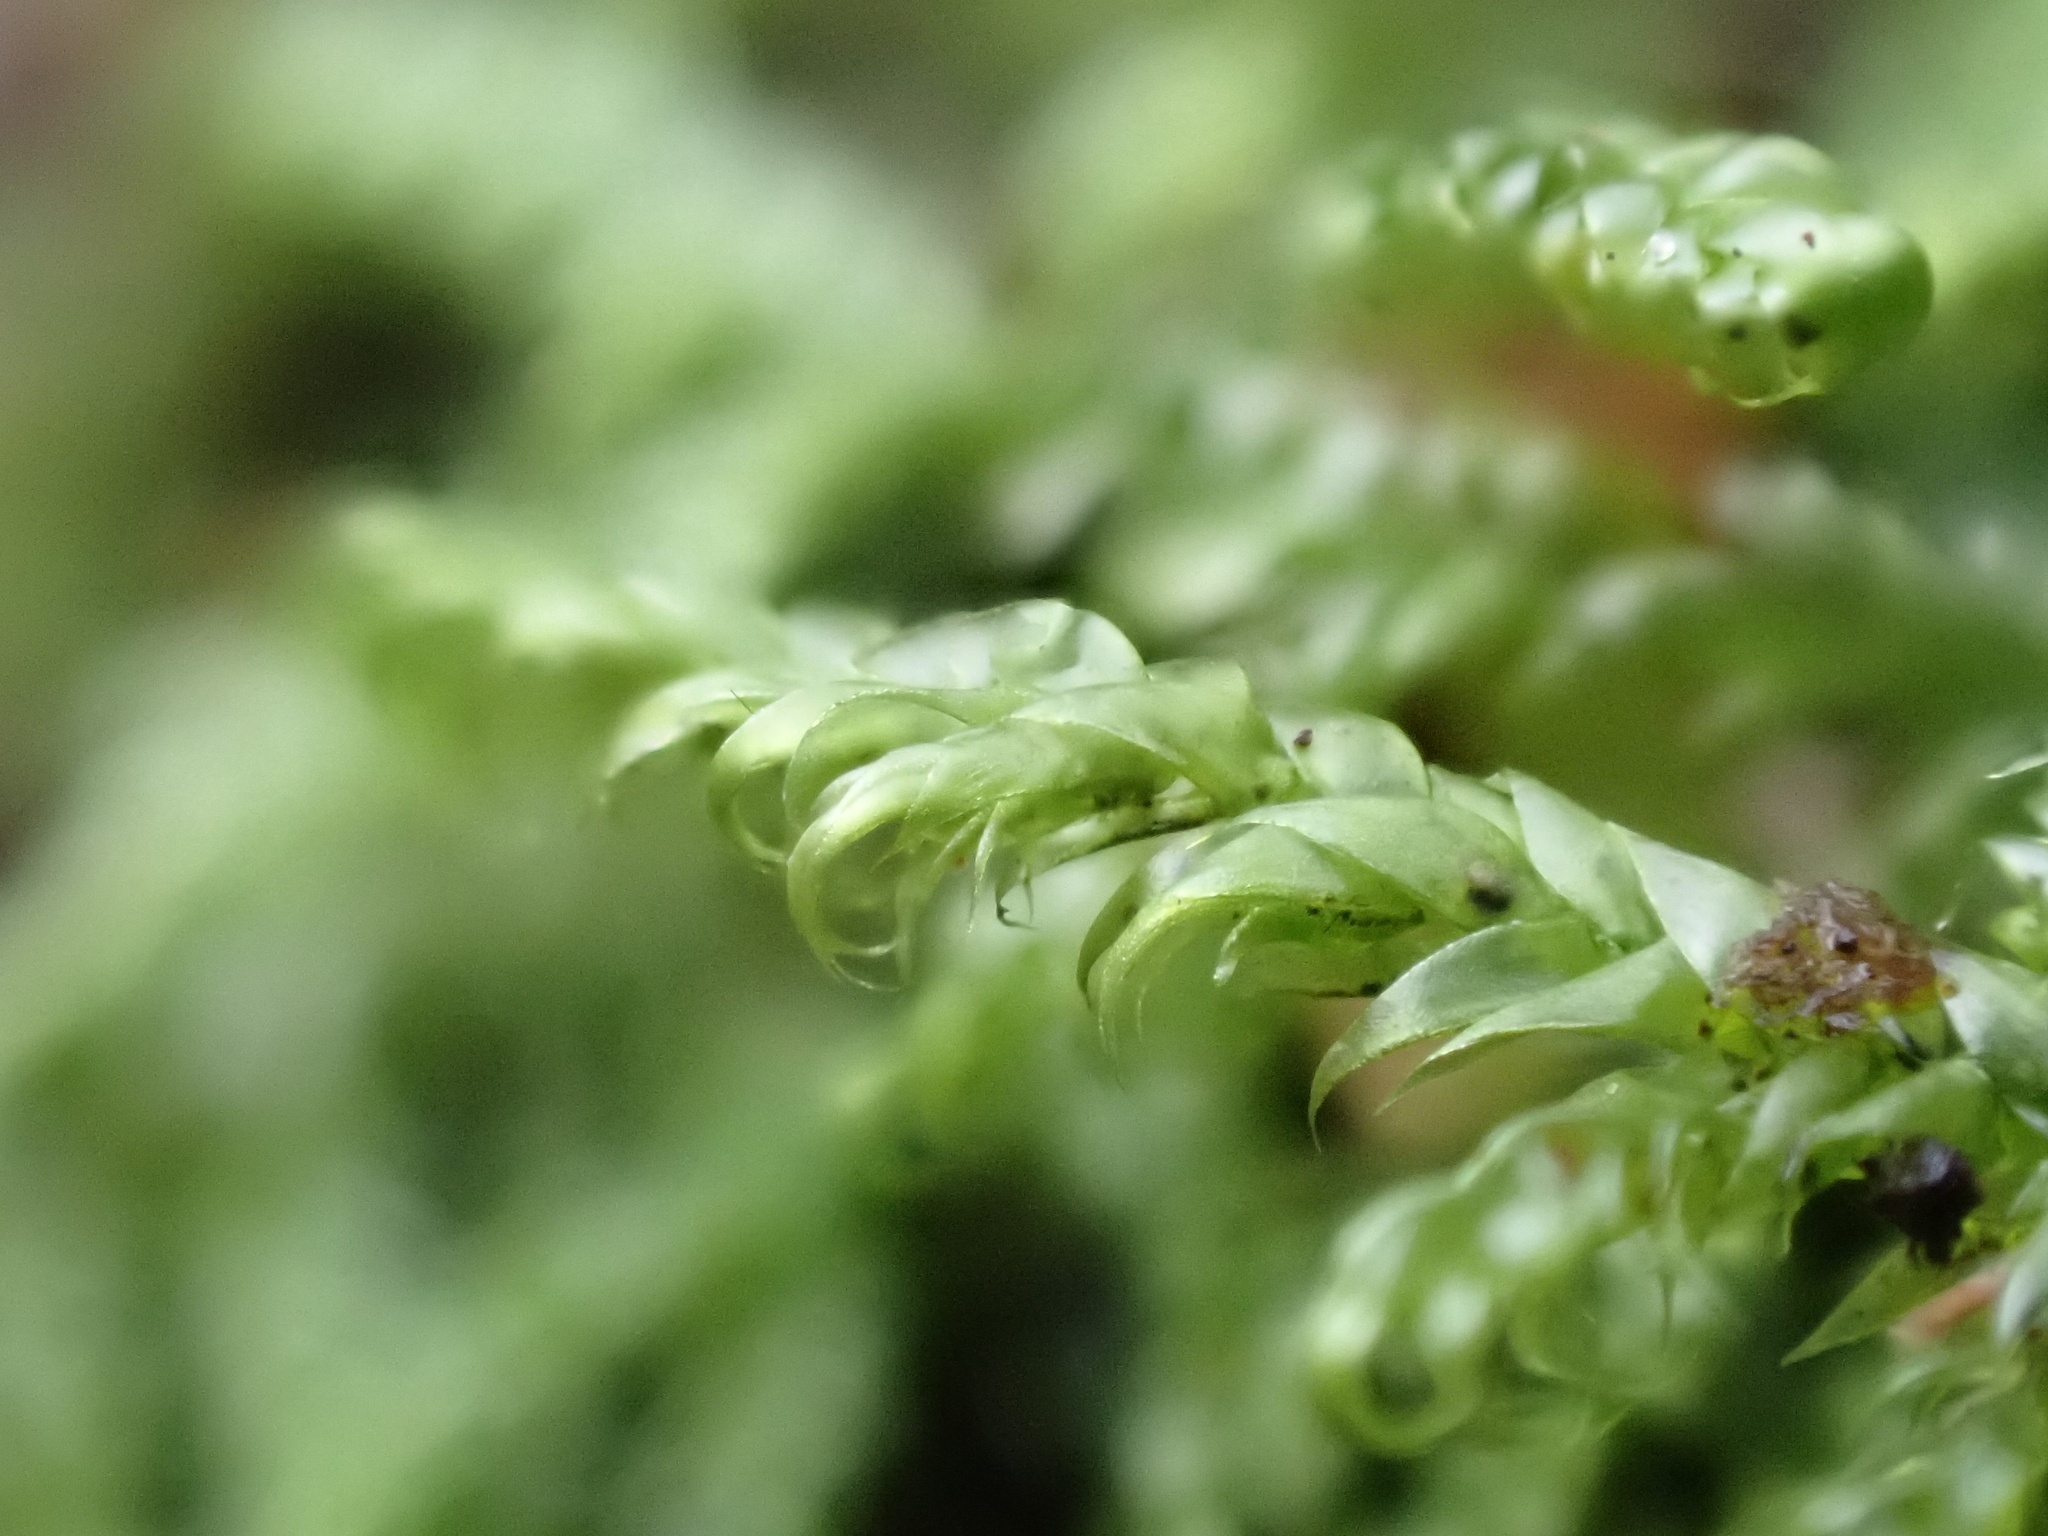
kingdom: Plantae
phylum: Bryophyta
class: Bryopsida
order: Hypnales
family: Hypnaceae
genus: Hypnum
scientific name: Hypnum jutlandicum
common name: Heath plait-moss
